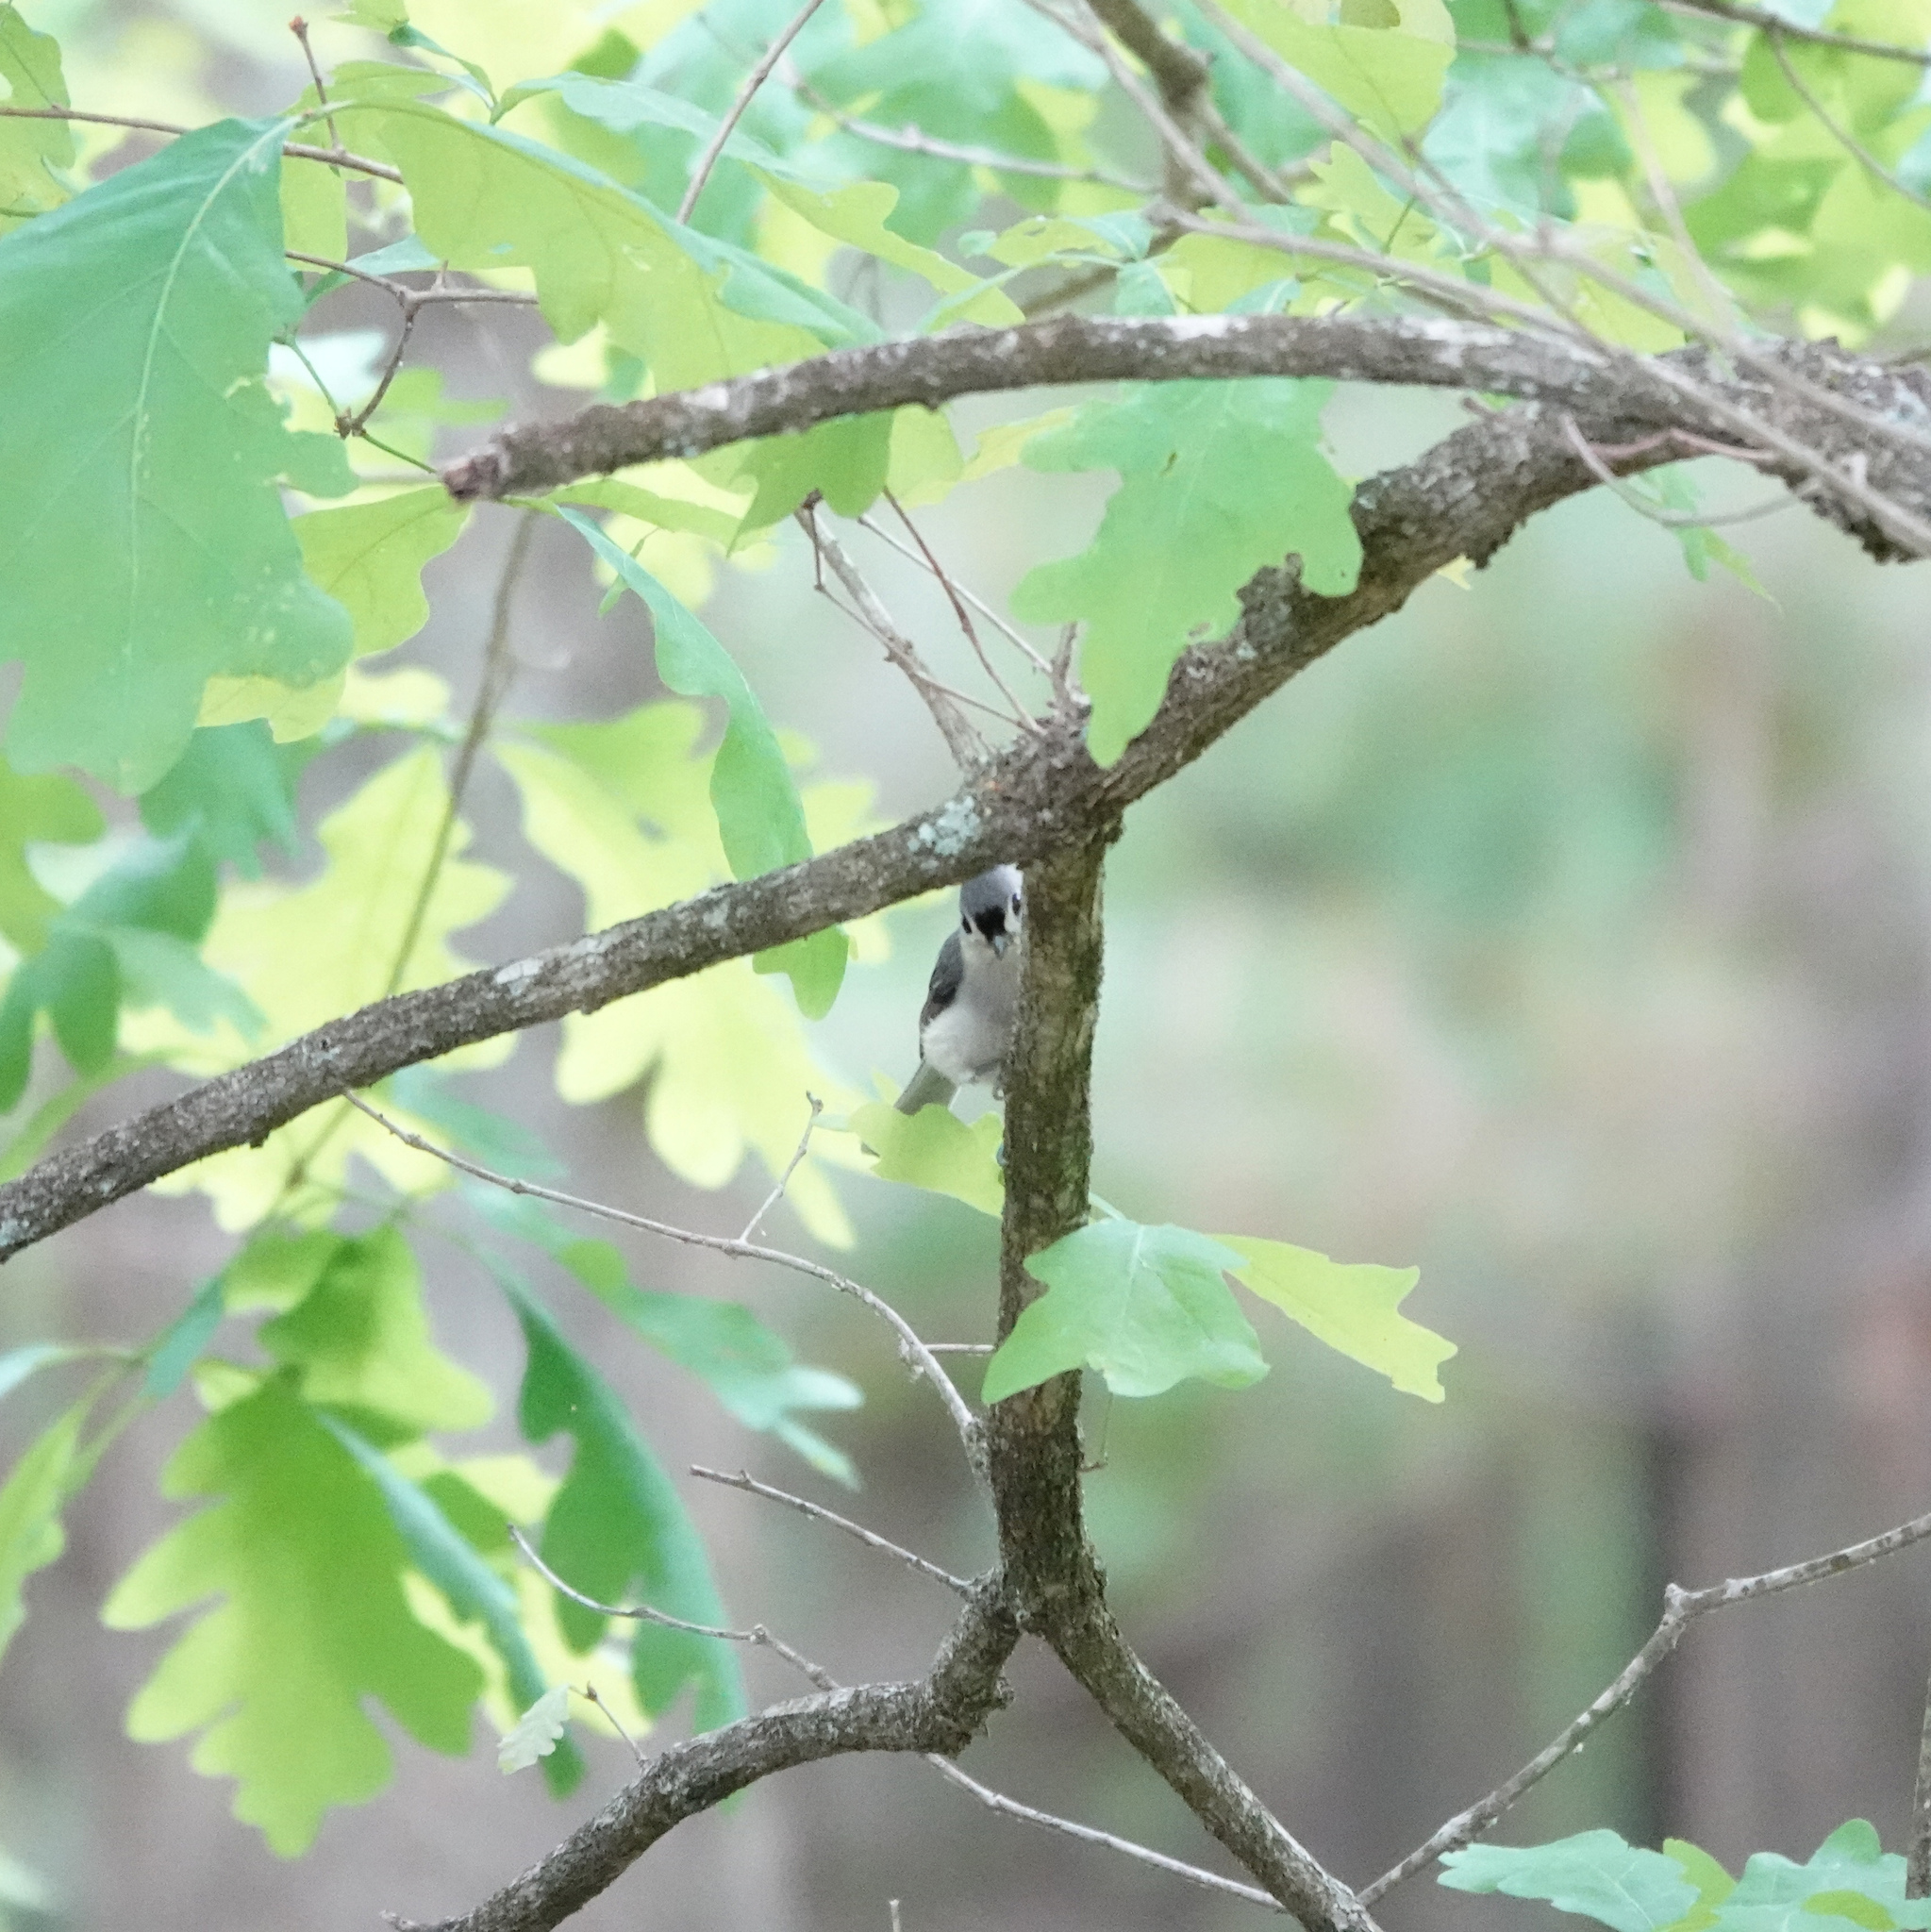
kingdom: Animalia
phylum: Chordata
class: Aves
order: Passeriformes
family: Paridae
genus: Baeolophus
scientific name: Baeolophus bicolor
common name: Tufted titmouse
